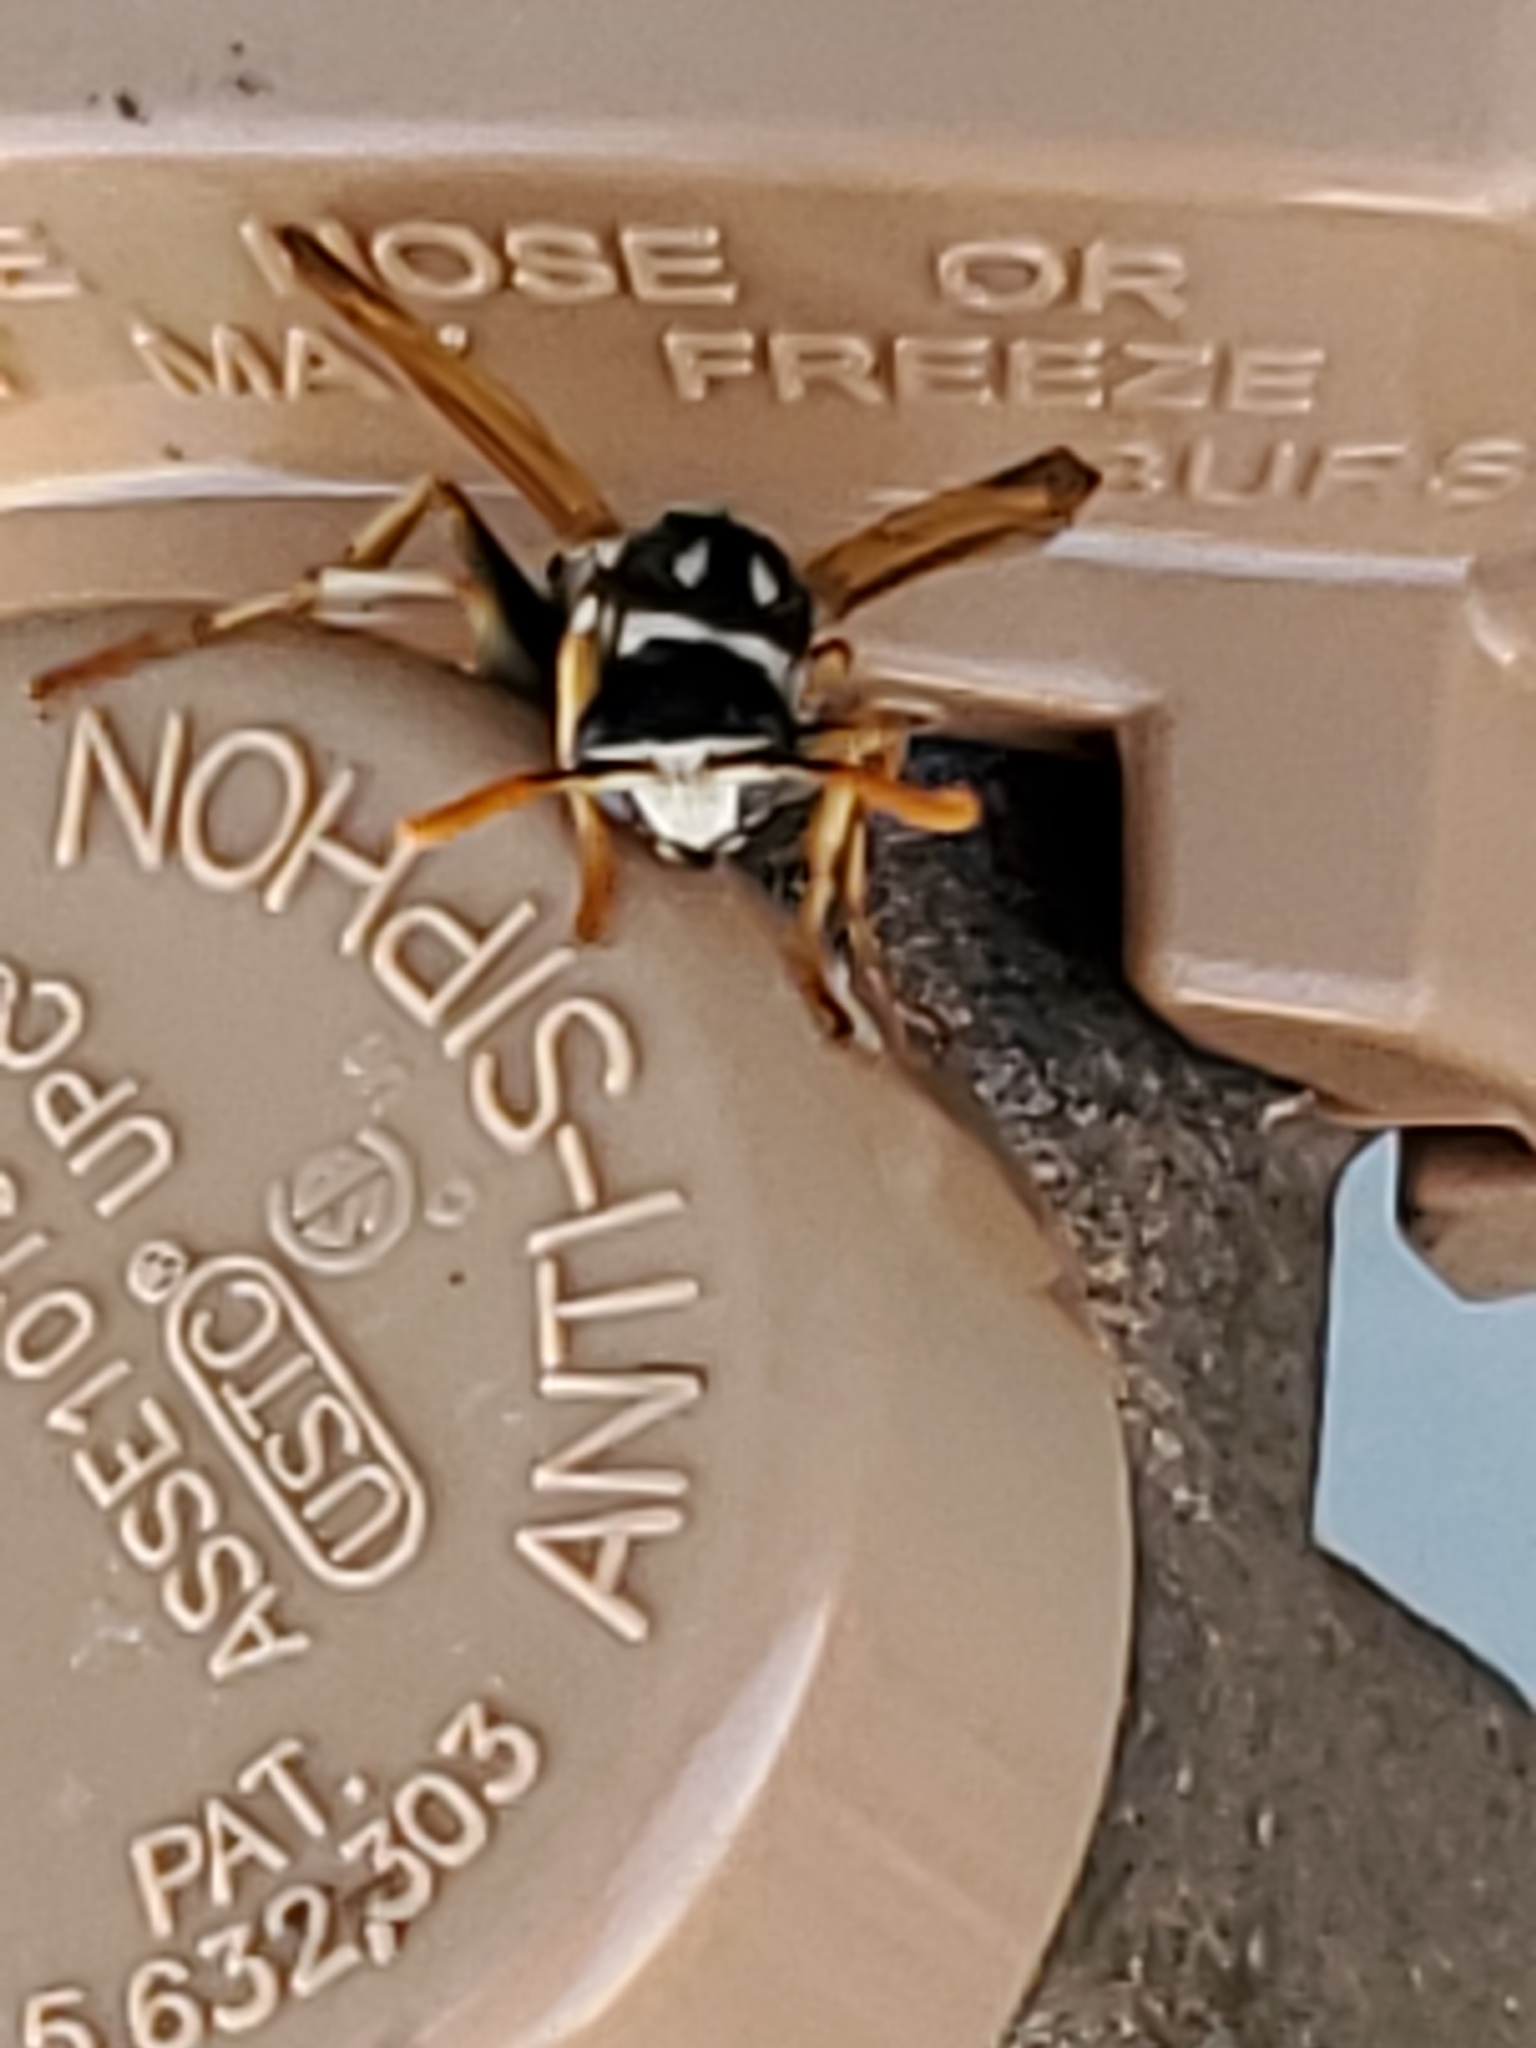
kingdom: Animalia
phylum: Arthropoda
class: Insecta
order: Hymenoptera
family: Eumenidae
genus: Polistes
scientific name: Polistes dominula
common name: Paper wasp
